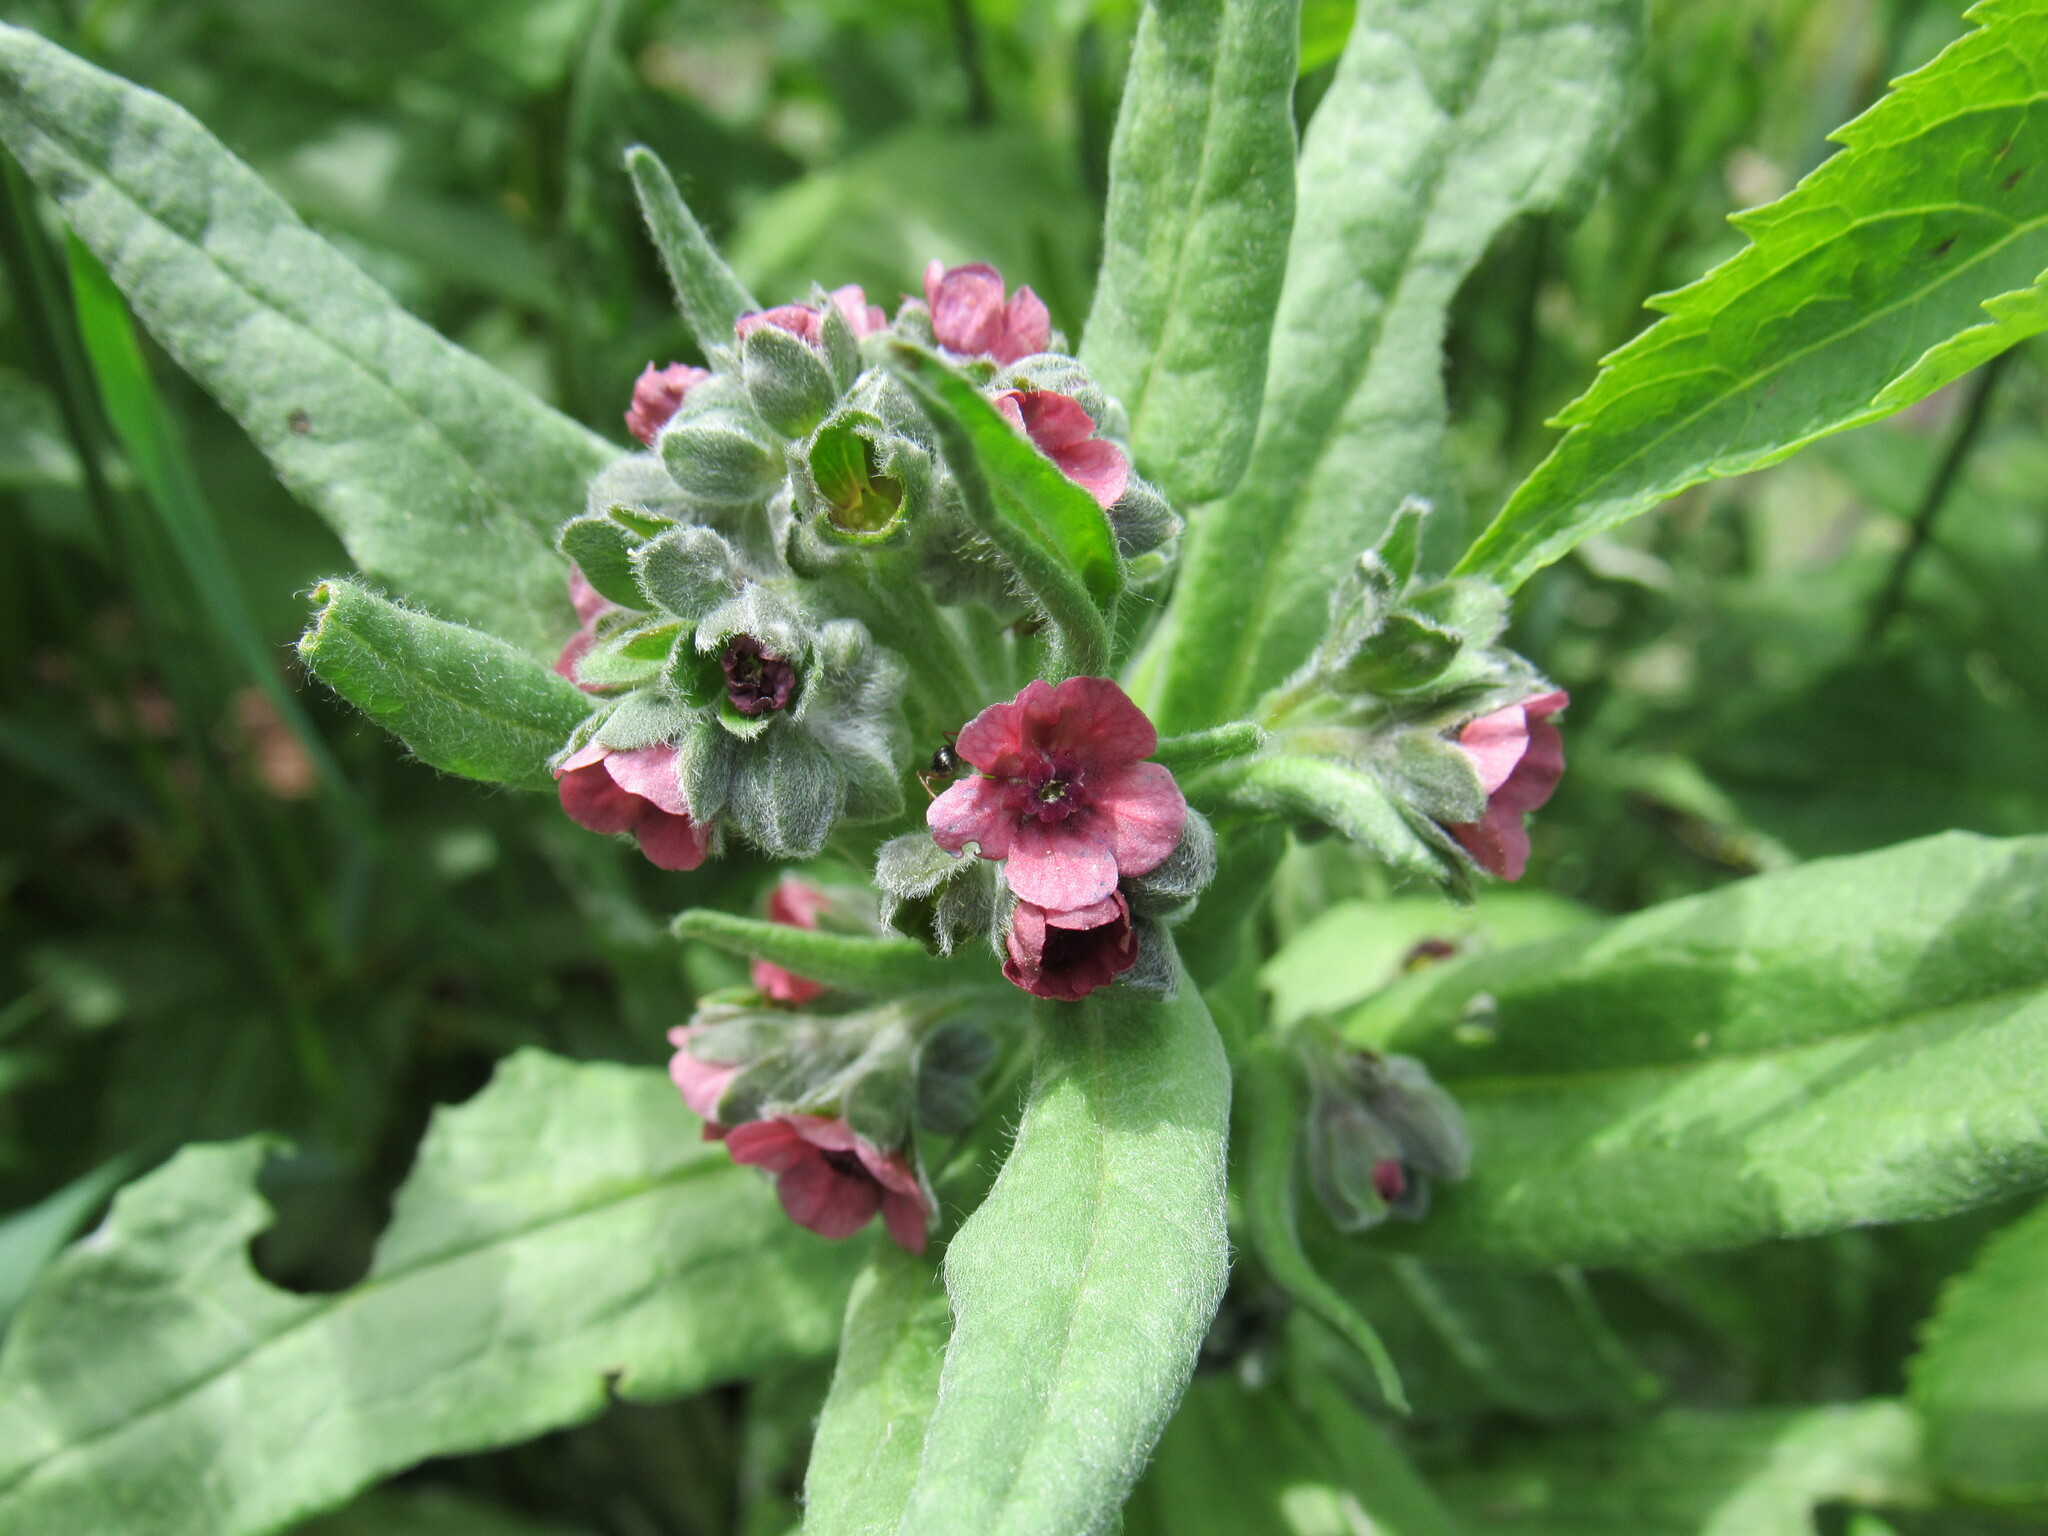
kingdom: Plantae
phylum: Tracheophyta
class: Magnoliopsida
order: Boraginales
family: Boraginaceae
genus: Cynoglossum
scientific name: Cynoglossum officinale
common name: Hound's-tongue
